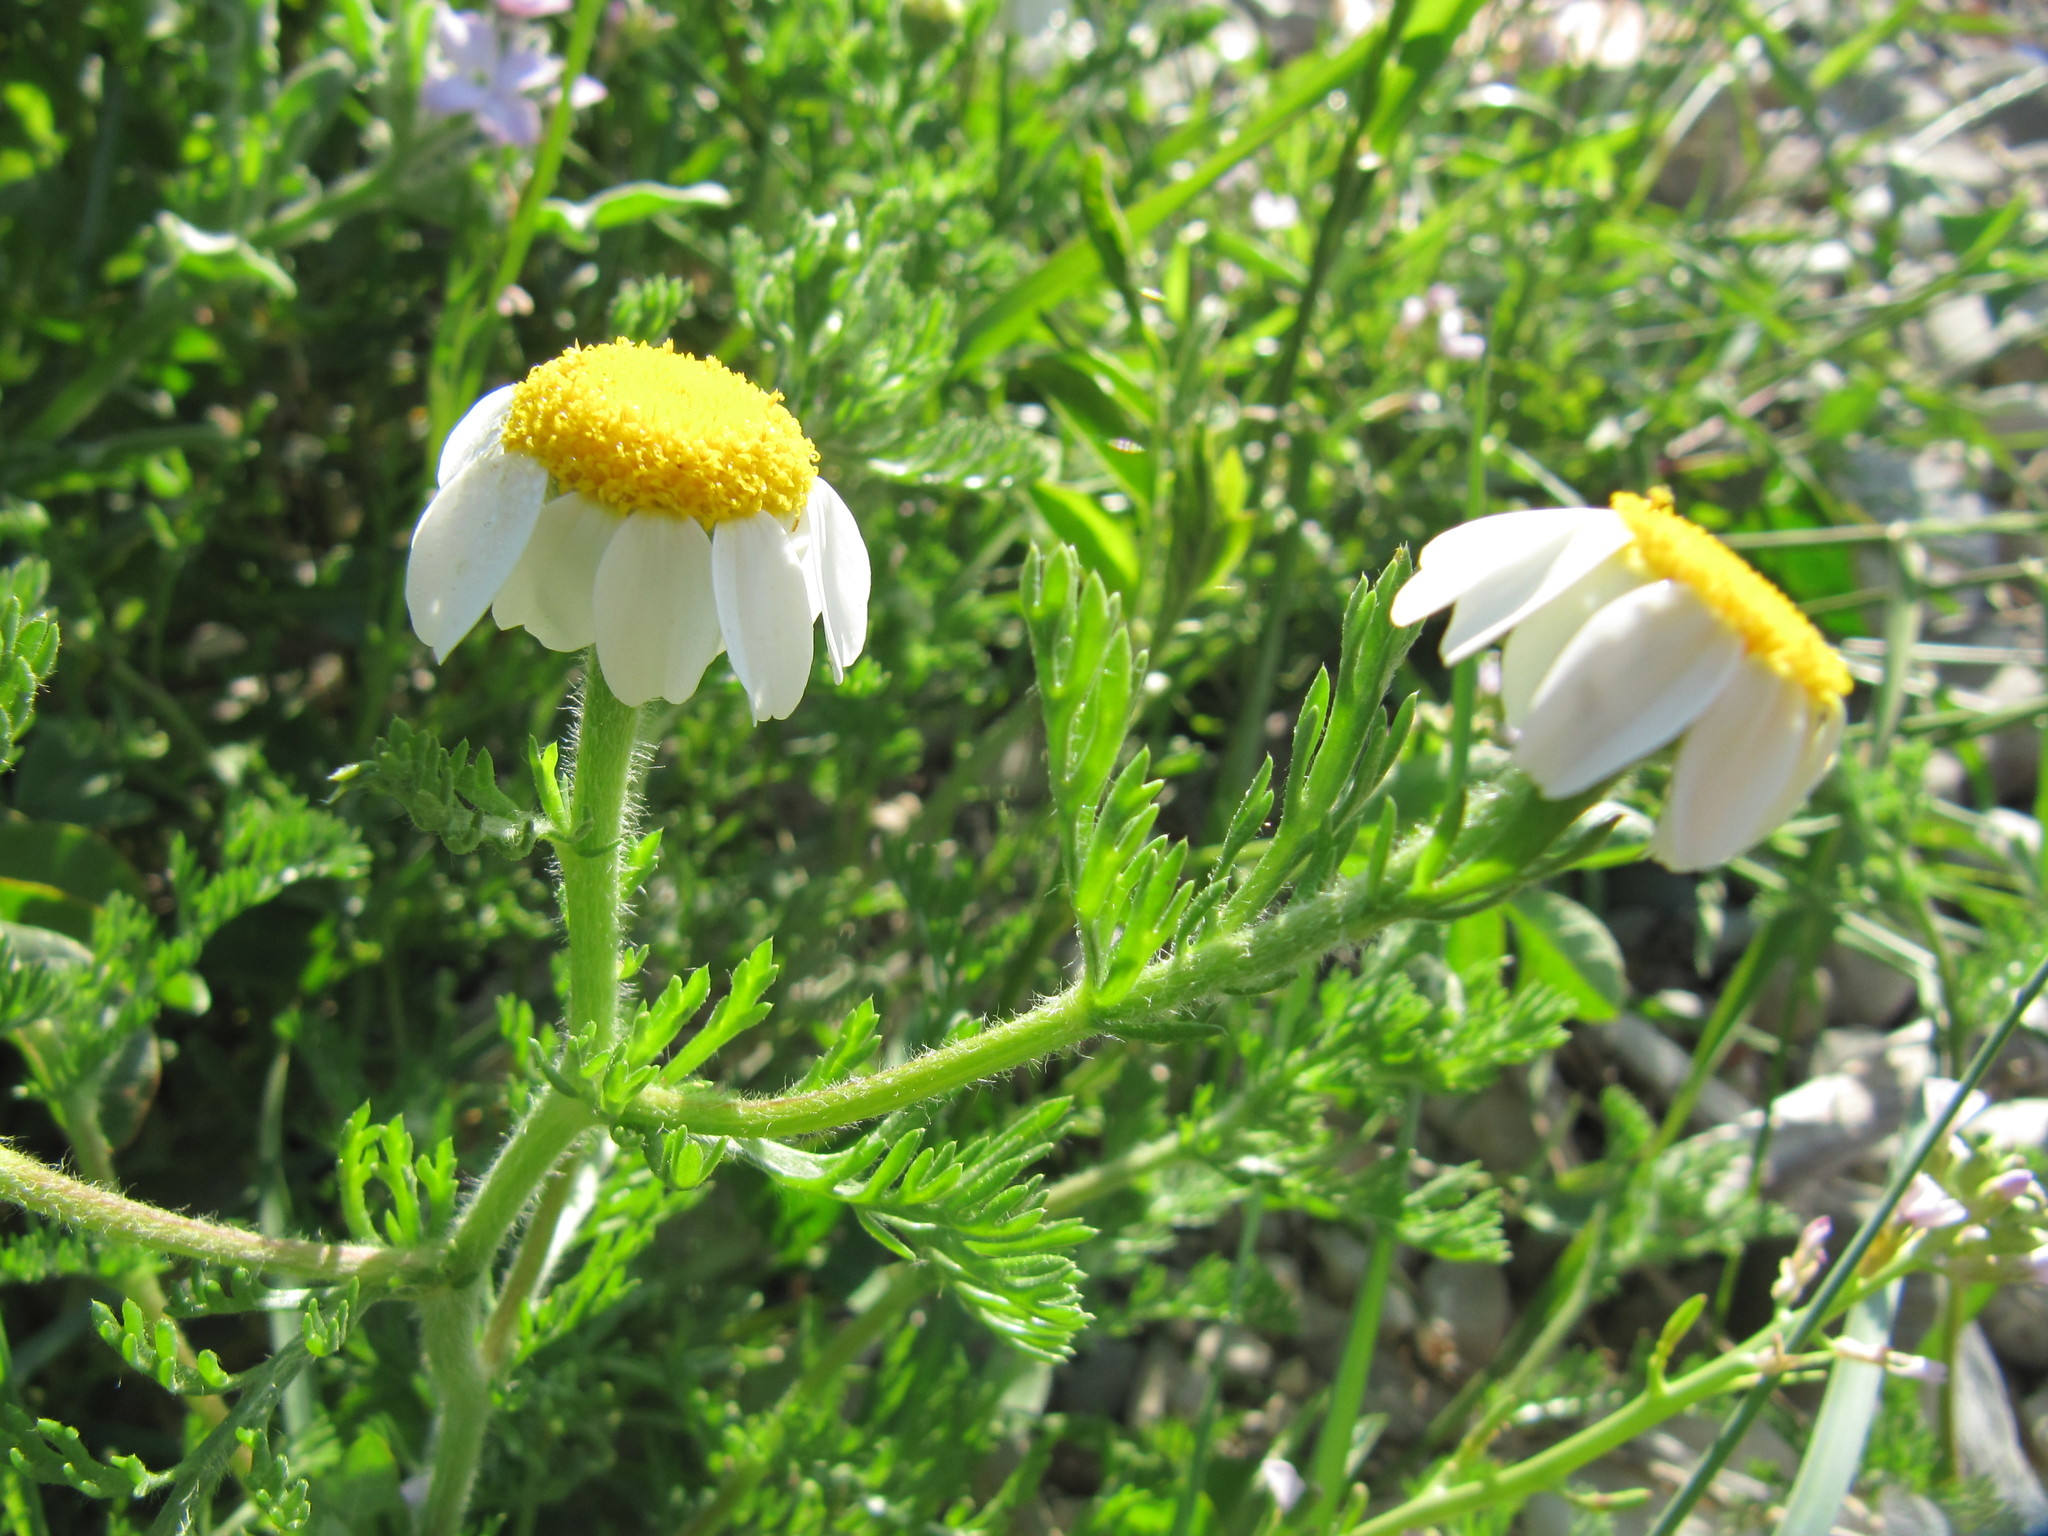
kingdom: Plantae
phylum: Tracheophyta
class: Magnoliopsida
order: Asterales
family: Asteraceae
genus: Anacyclus
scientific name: Anacyclus clavatus
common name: Whitebuttons
